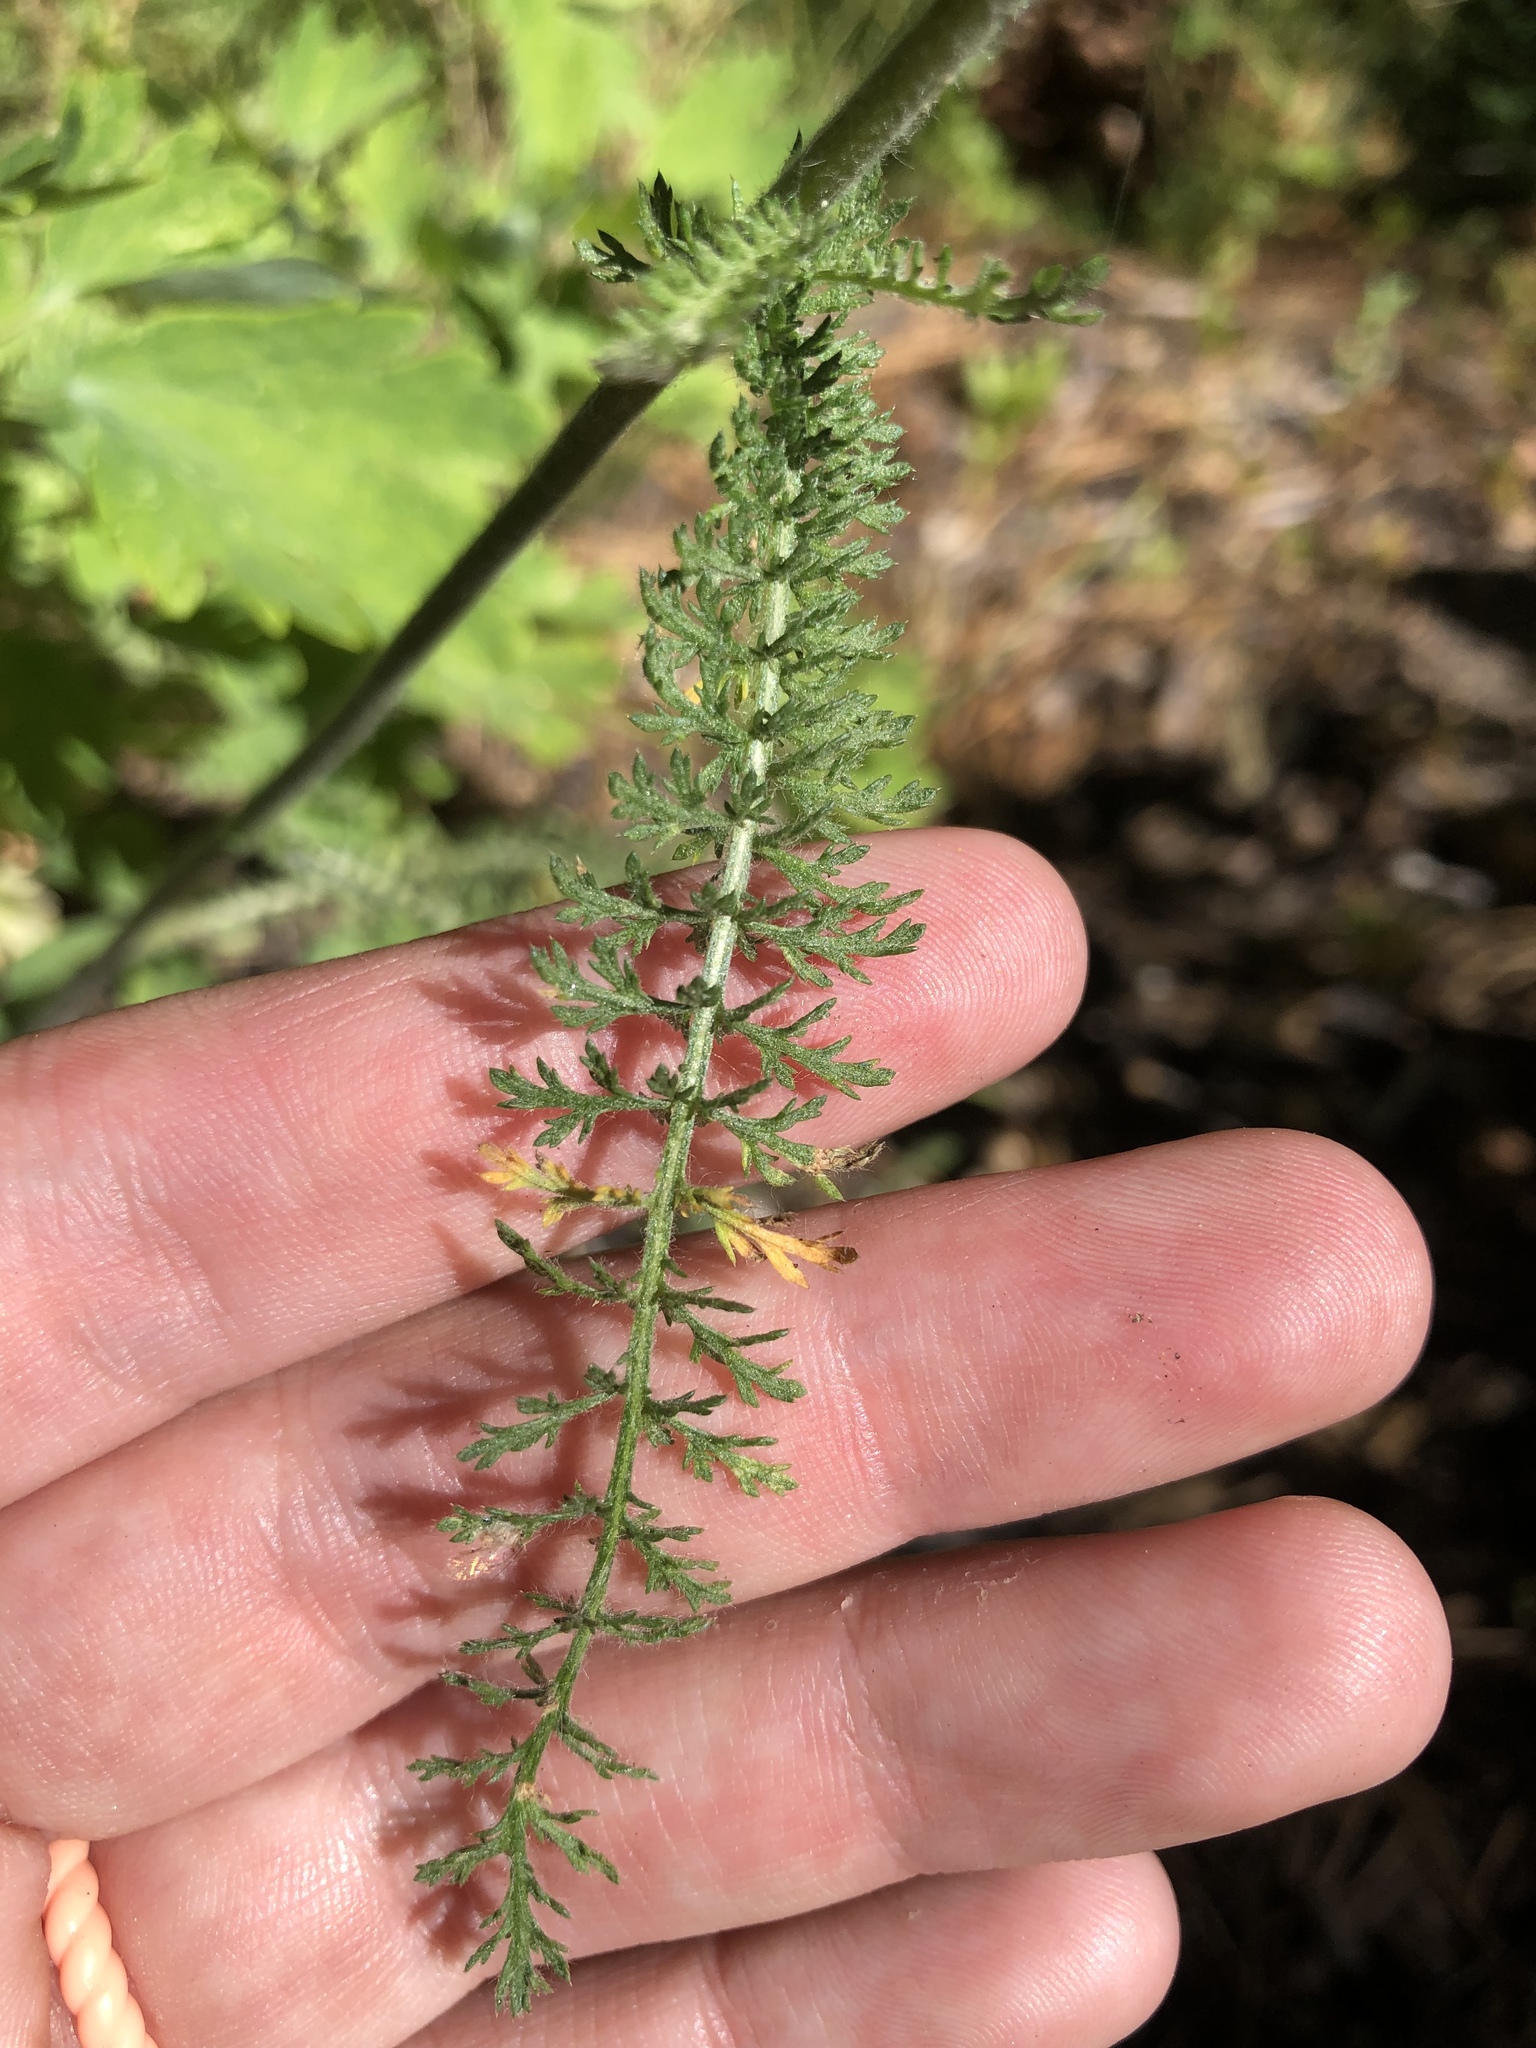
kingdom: Plantae
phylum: Tracheophyta
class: Magnoliopsida
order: Asterales
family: Asteraceae
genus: Achillea
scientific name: Achillea millefolium
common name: Yarrow
